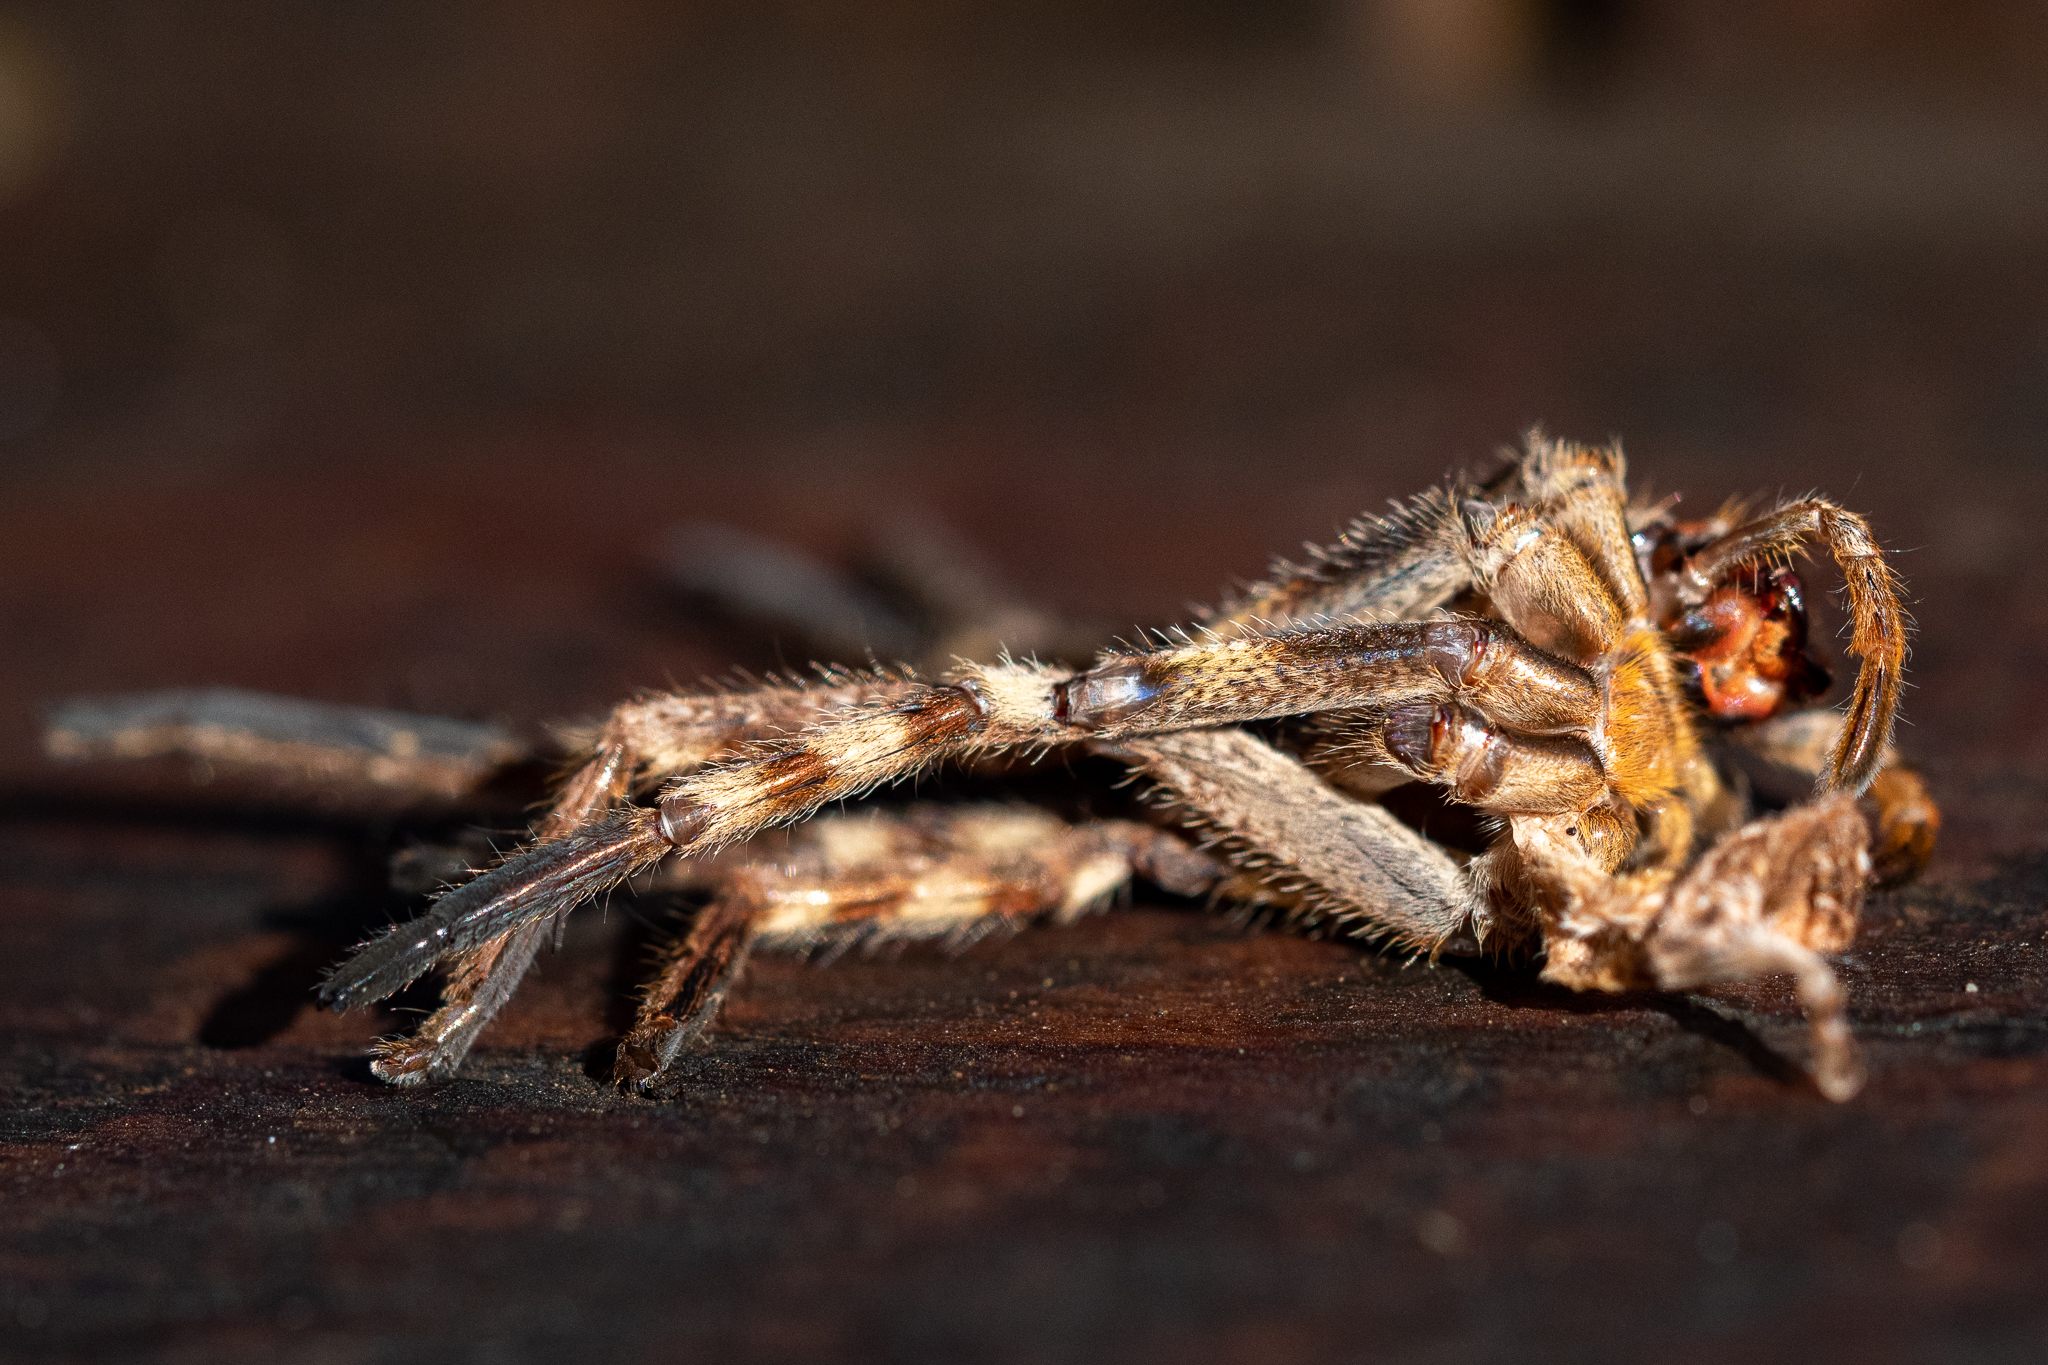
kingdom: Animalia
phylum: Arthropoda
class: Arachnida
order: Araneae
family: Sparassidae
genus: Palystes
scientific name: Palystes superciliosus
